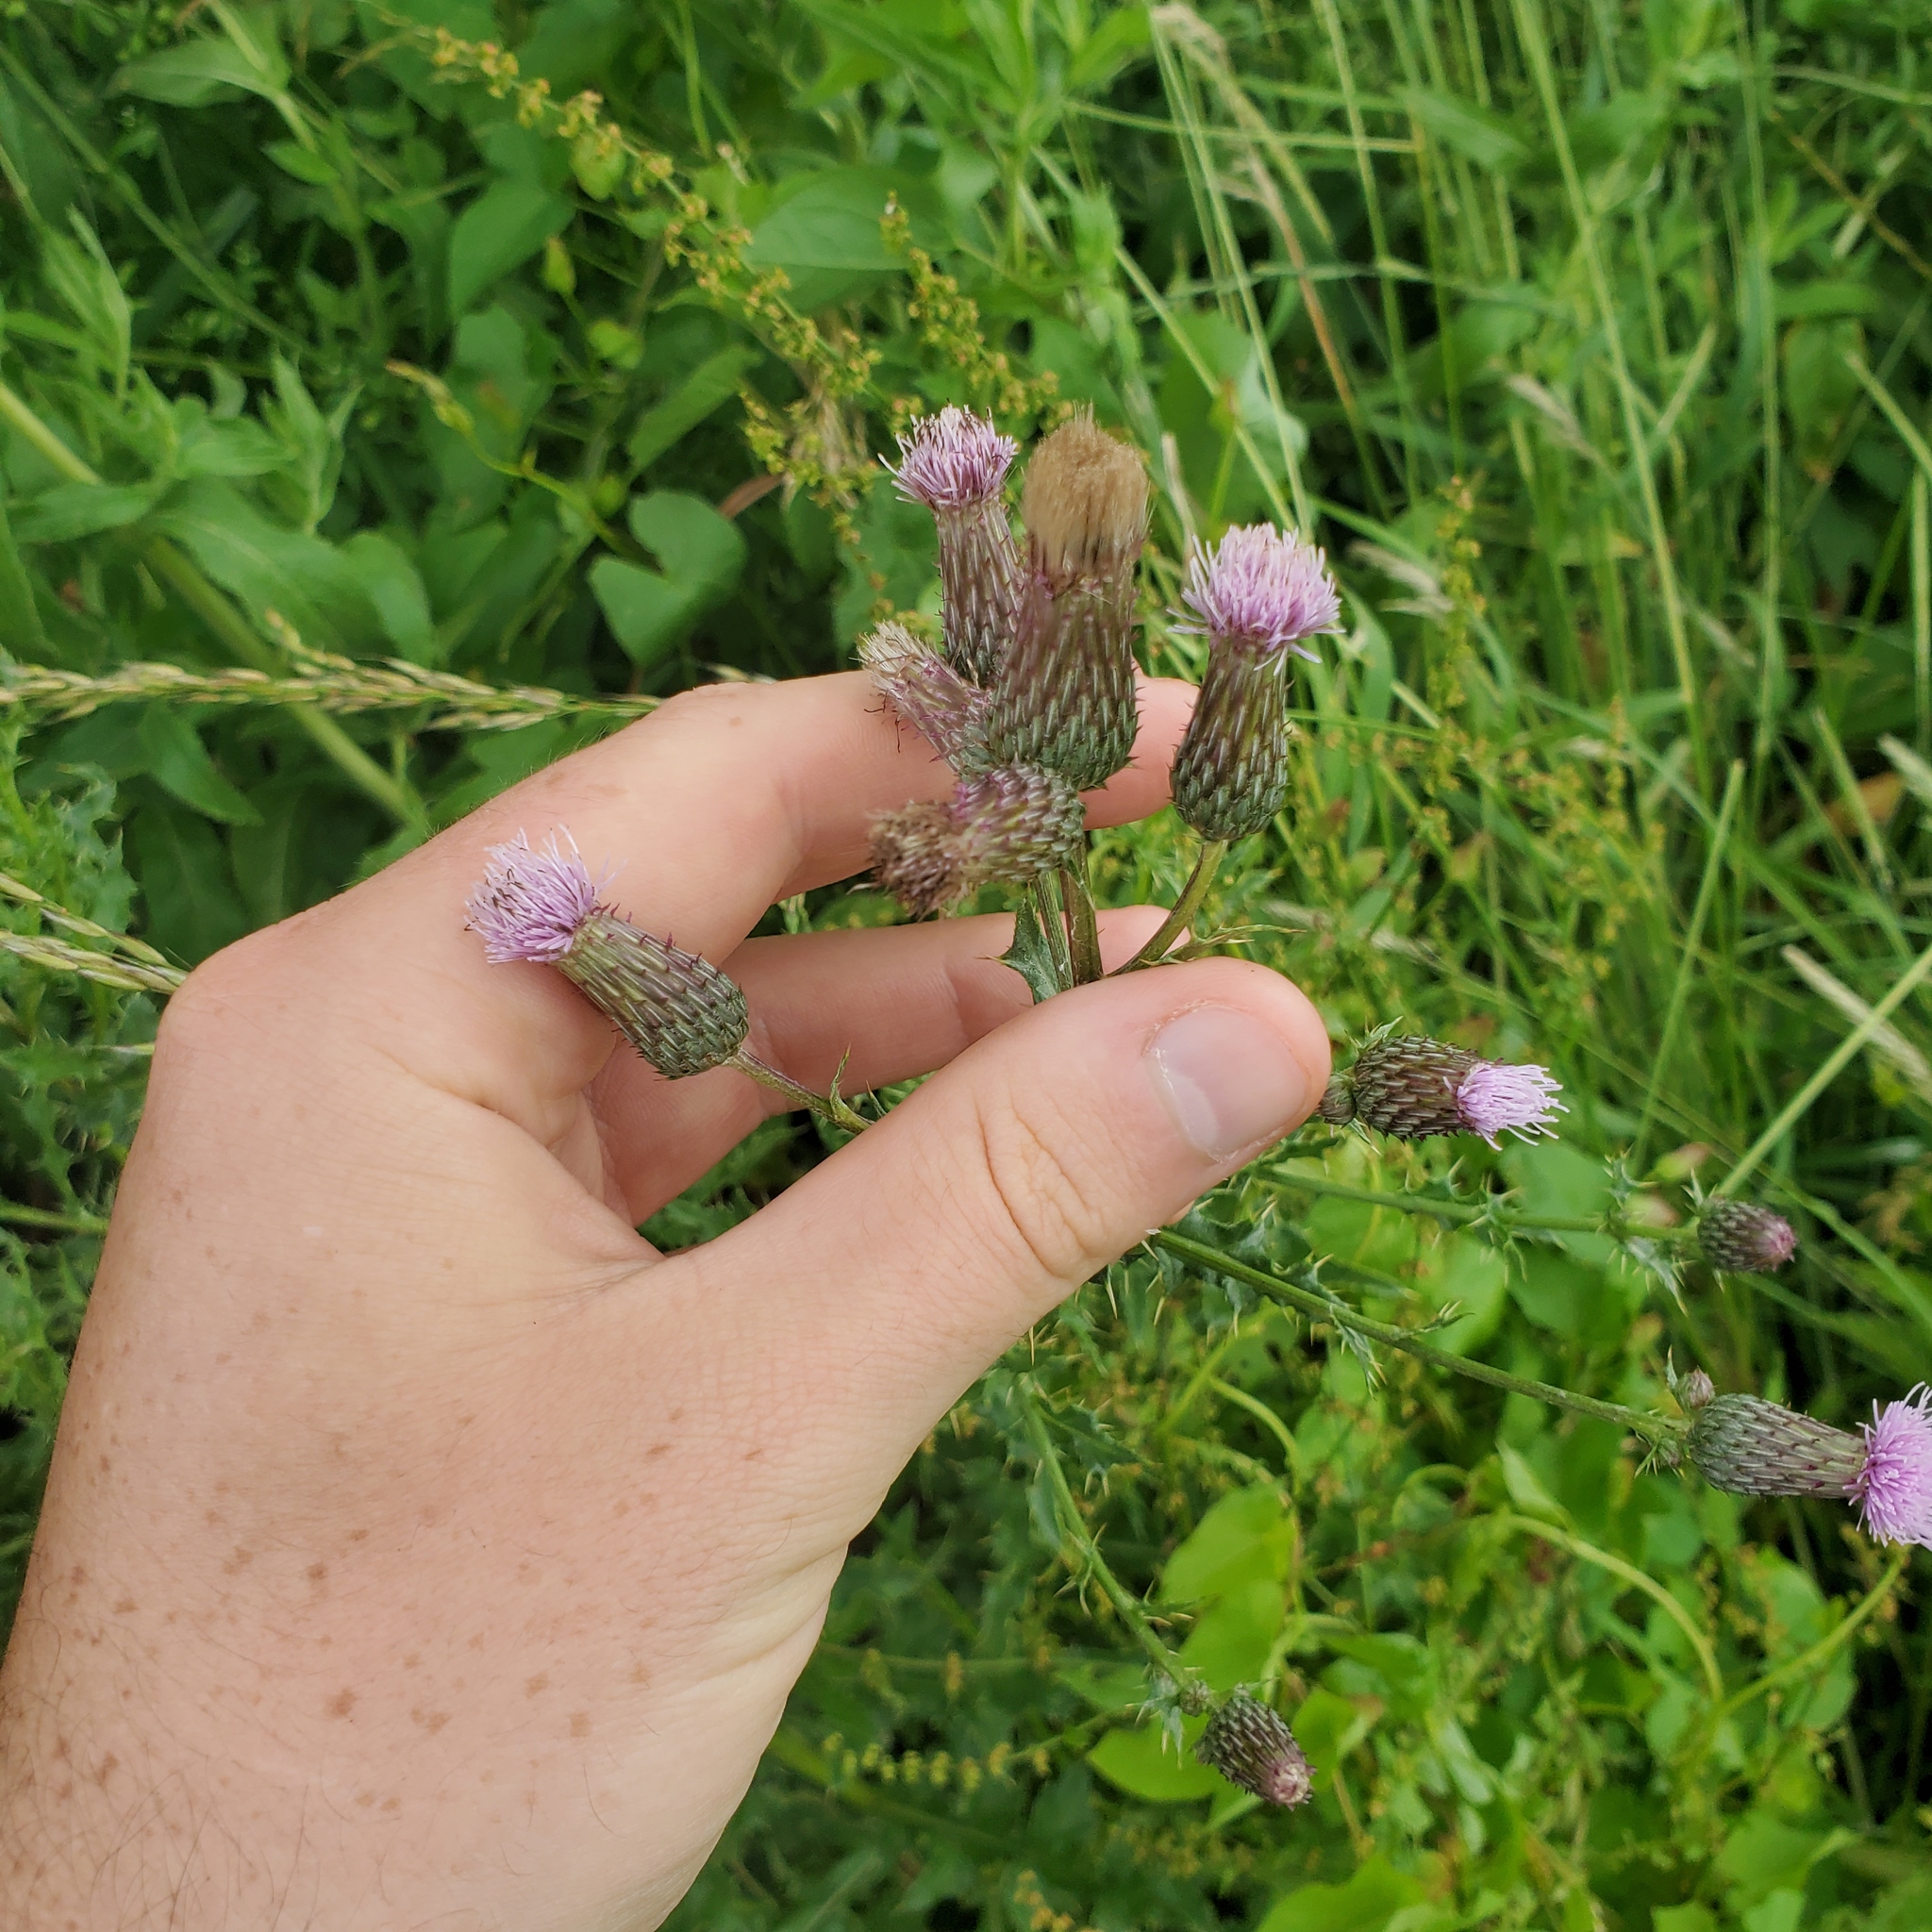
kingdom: Plantae
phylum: Tracheophyta
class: Magnoliopsida
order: Asterales
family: Asteraceae
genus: Cirsium
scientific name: Cirsium arvense
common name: Creeping thistle
